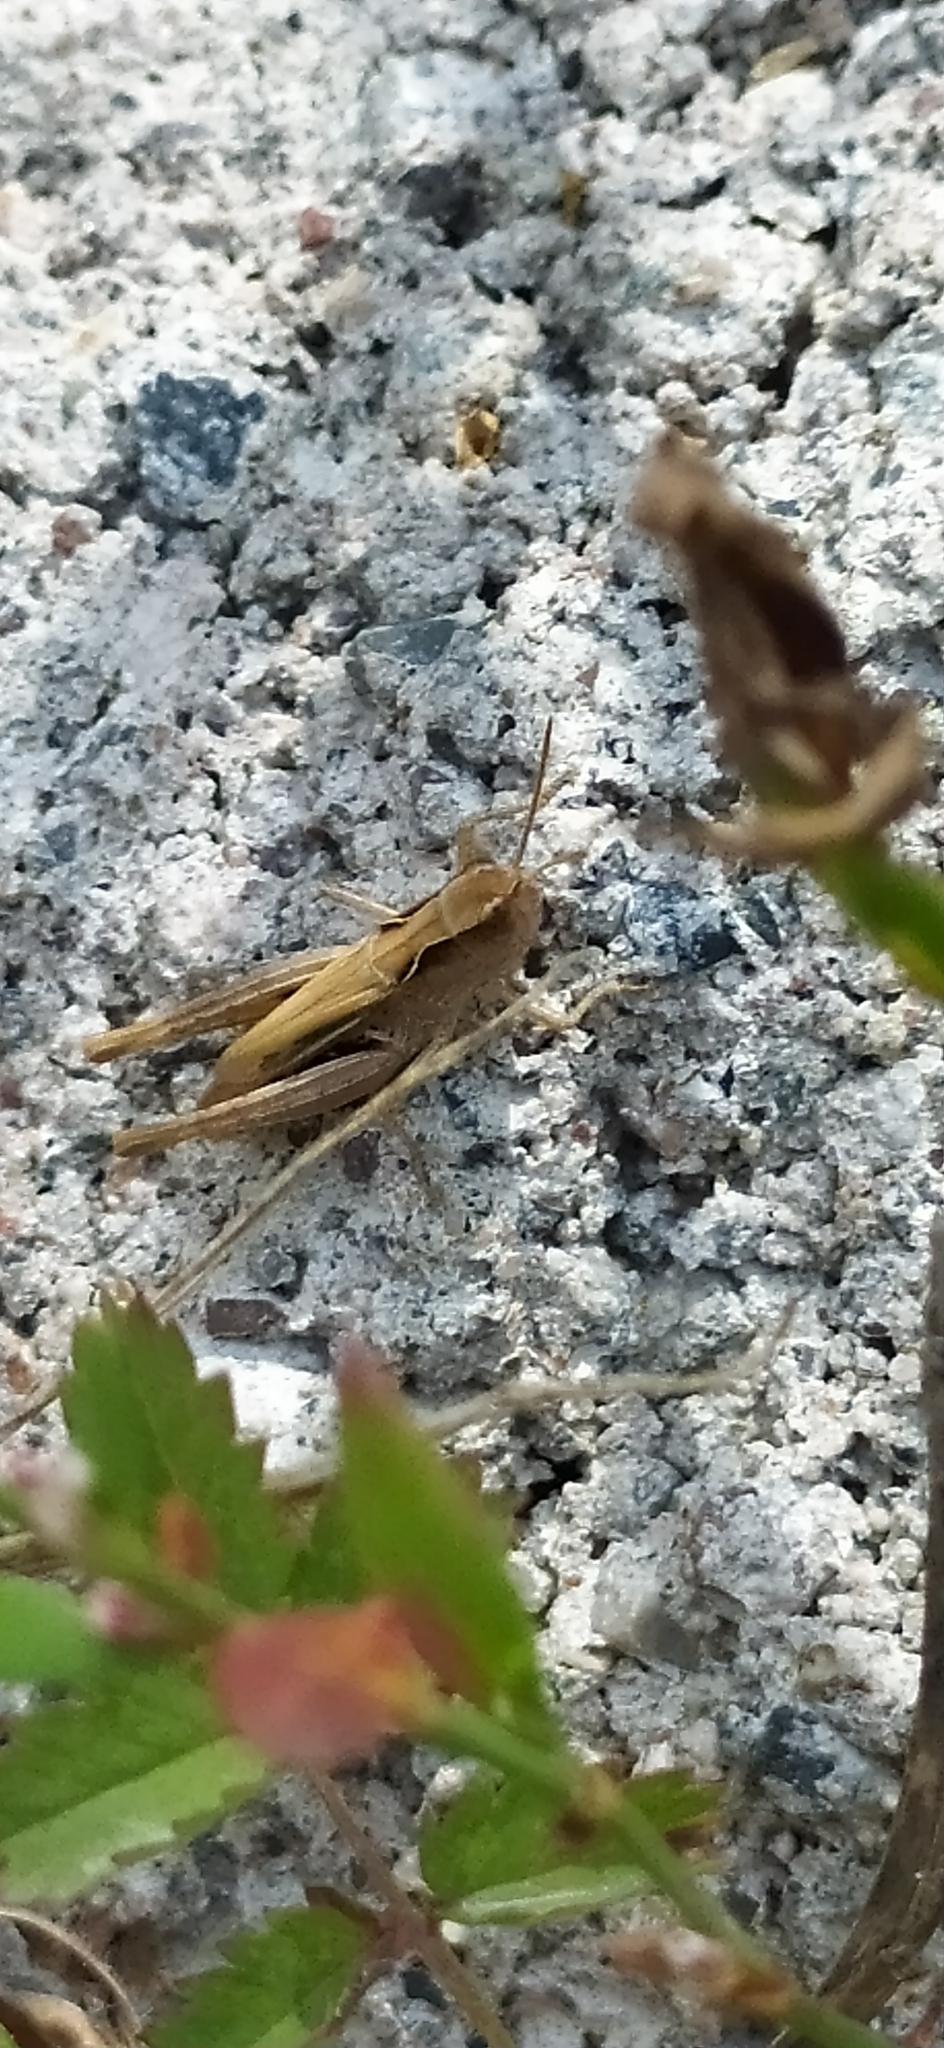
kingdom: Animalia
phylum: Arthropoda
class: Insecta
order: Orthoptera
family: Acrididae
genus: Chorthippus
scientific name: Chorthippus macrocerus
